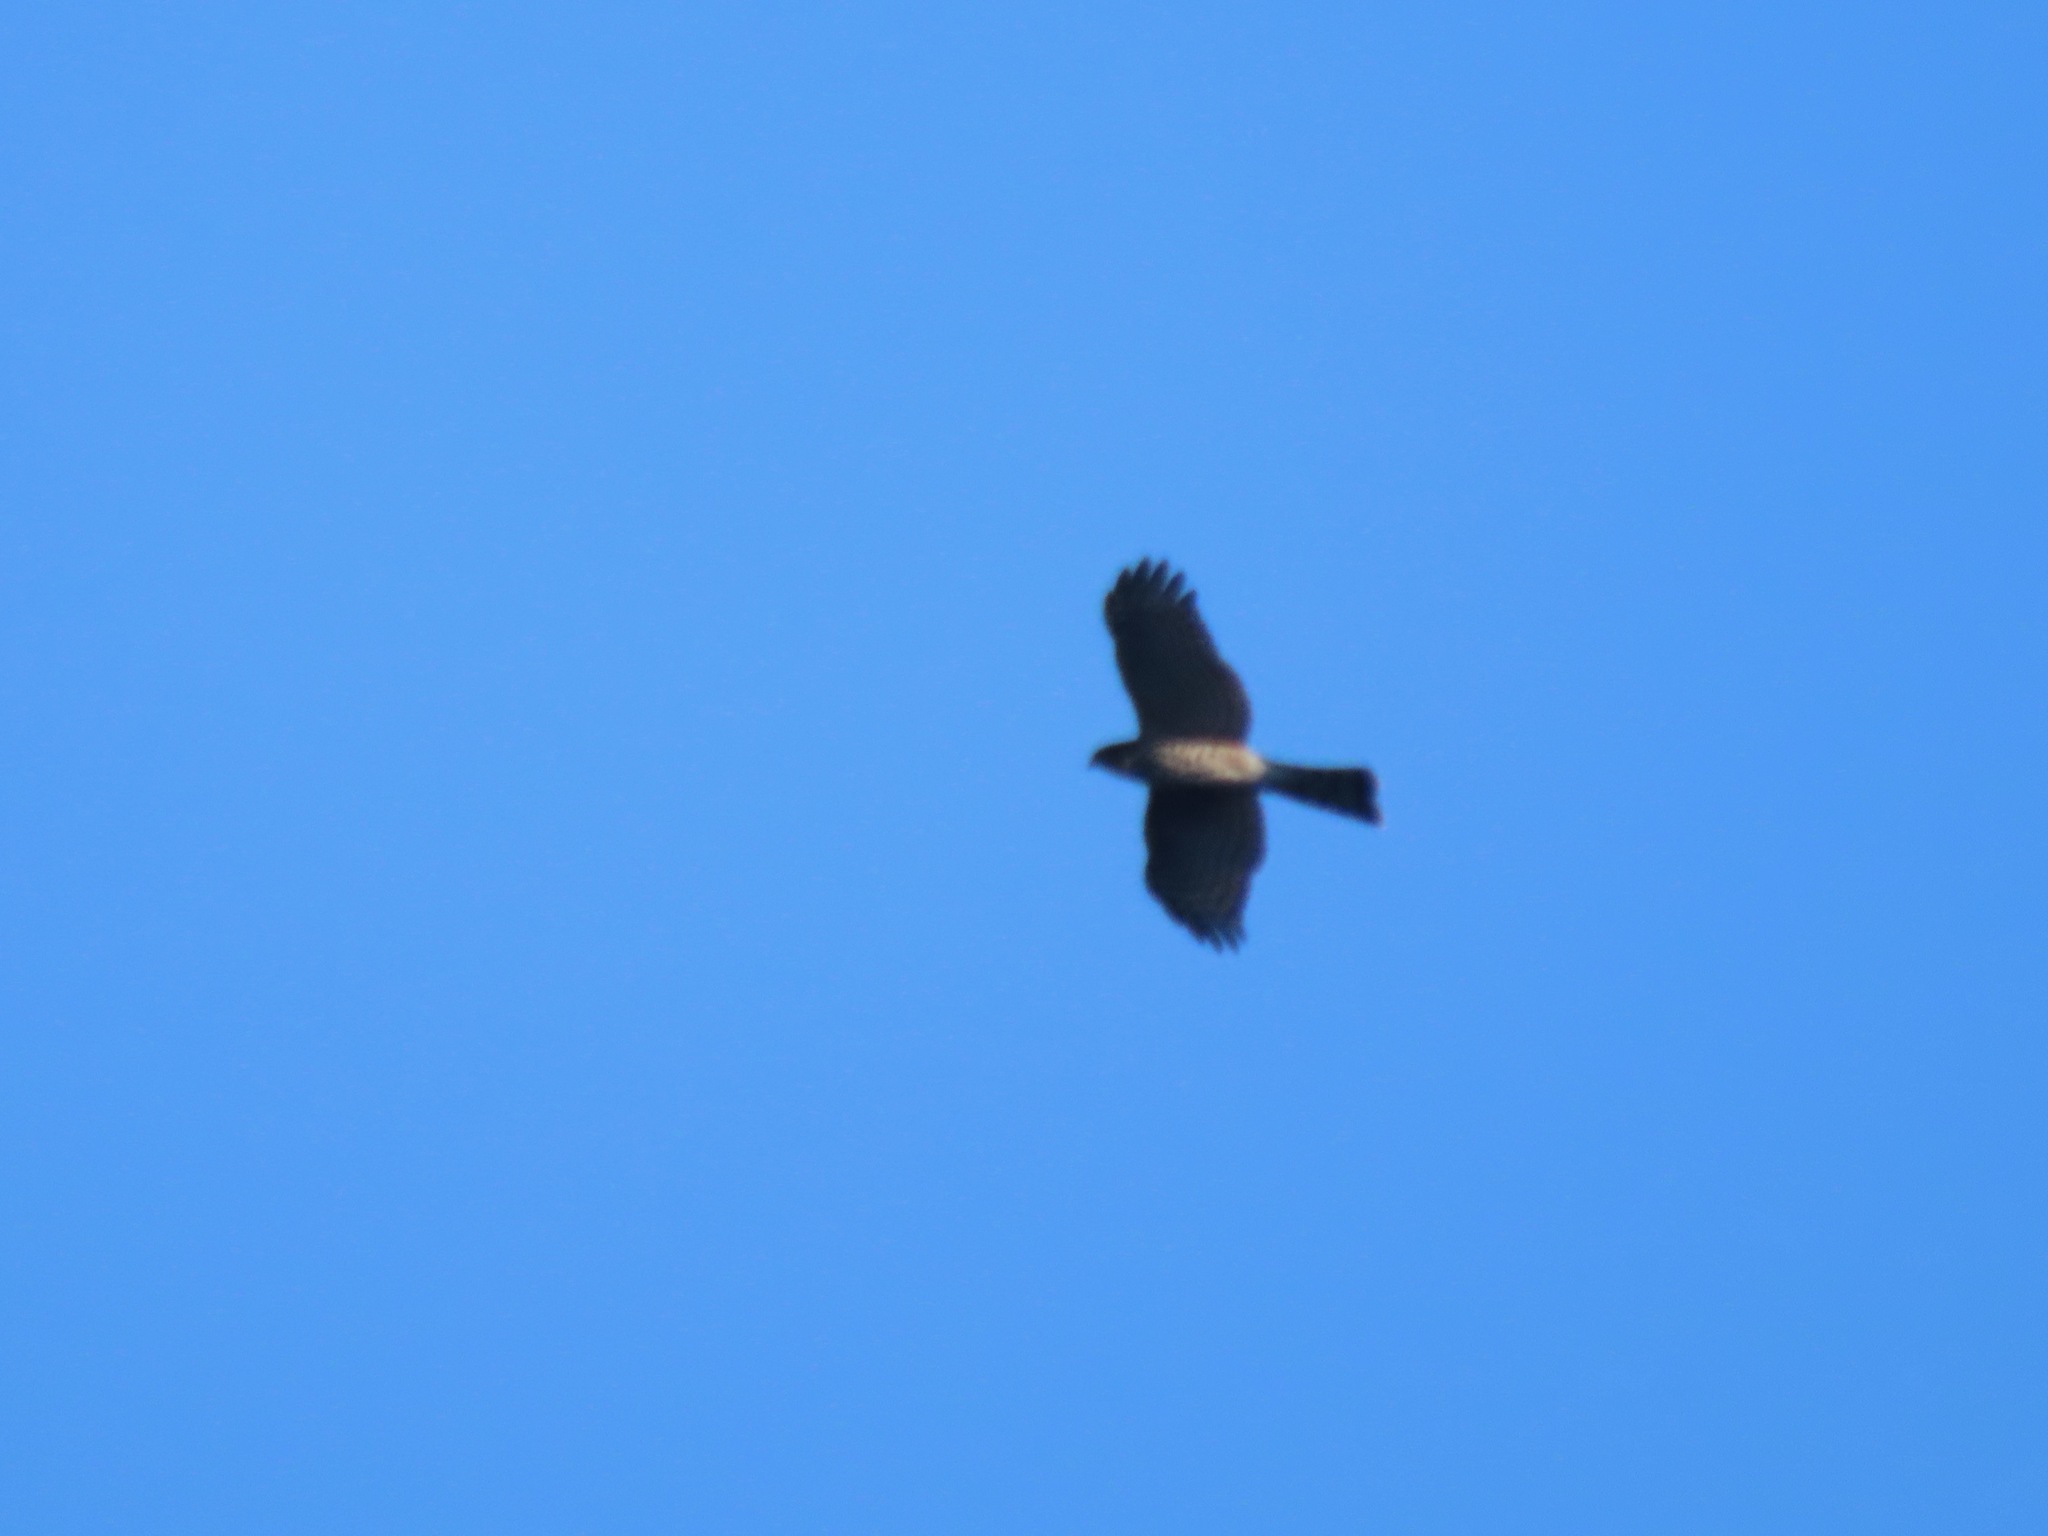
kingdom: Animalia
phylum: Chordata
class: Aves
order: Accipitriformes
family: Accipitridae
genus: Accipiter
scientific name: Accipiter striatus
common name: Sharp-shinned hawk
